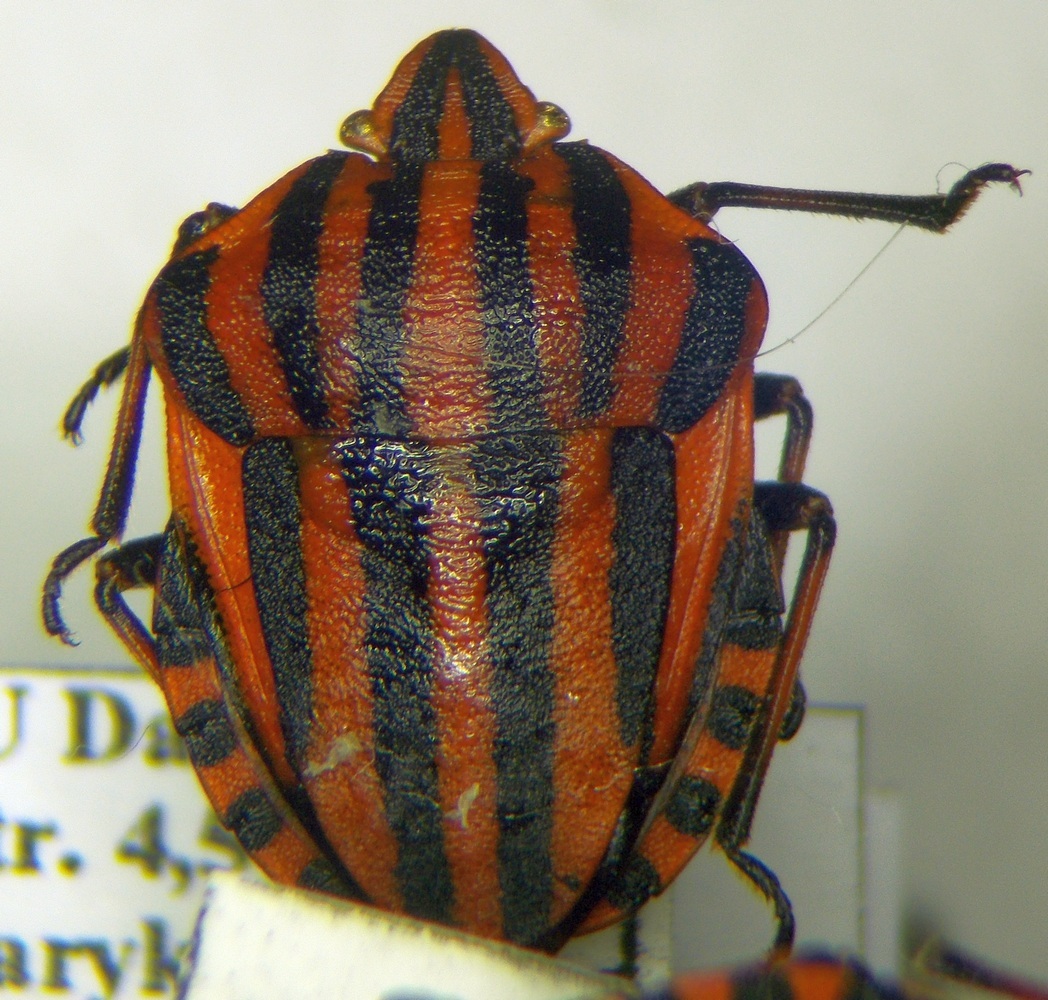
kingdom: Animalia
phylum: Arthropoda
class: Insecta
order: Hemiptera
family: Pentatomidae
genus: Graphosoma
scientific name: Graphosoma italicum
